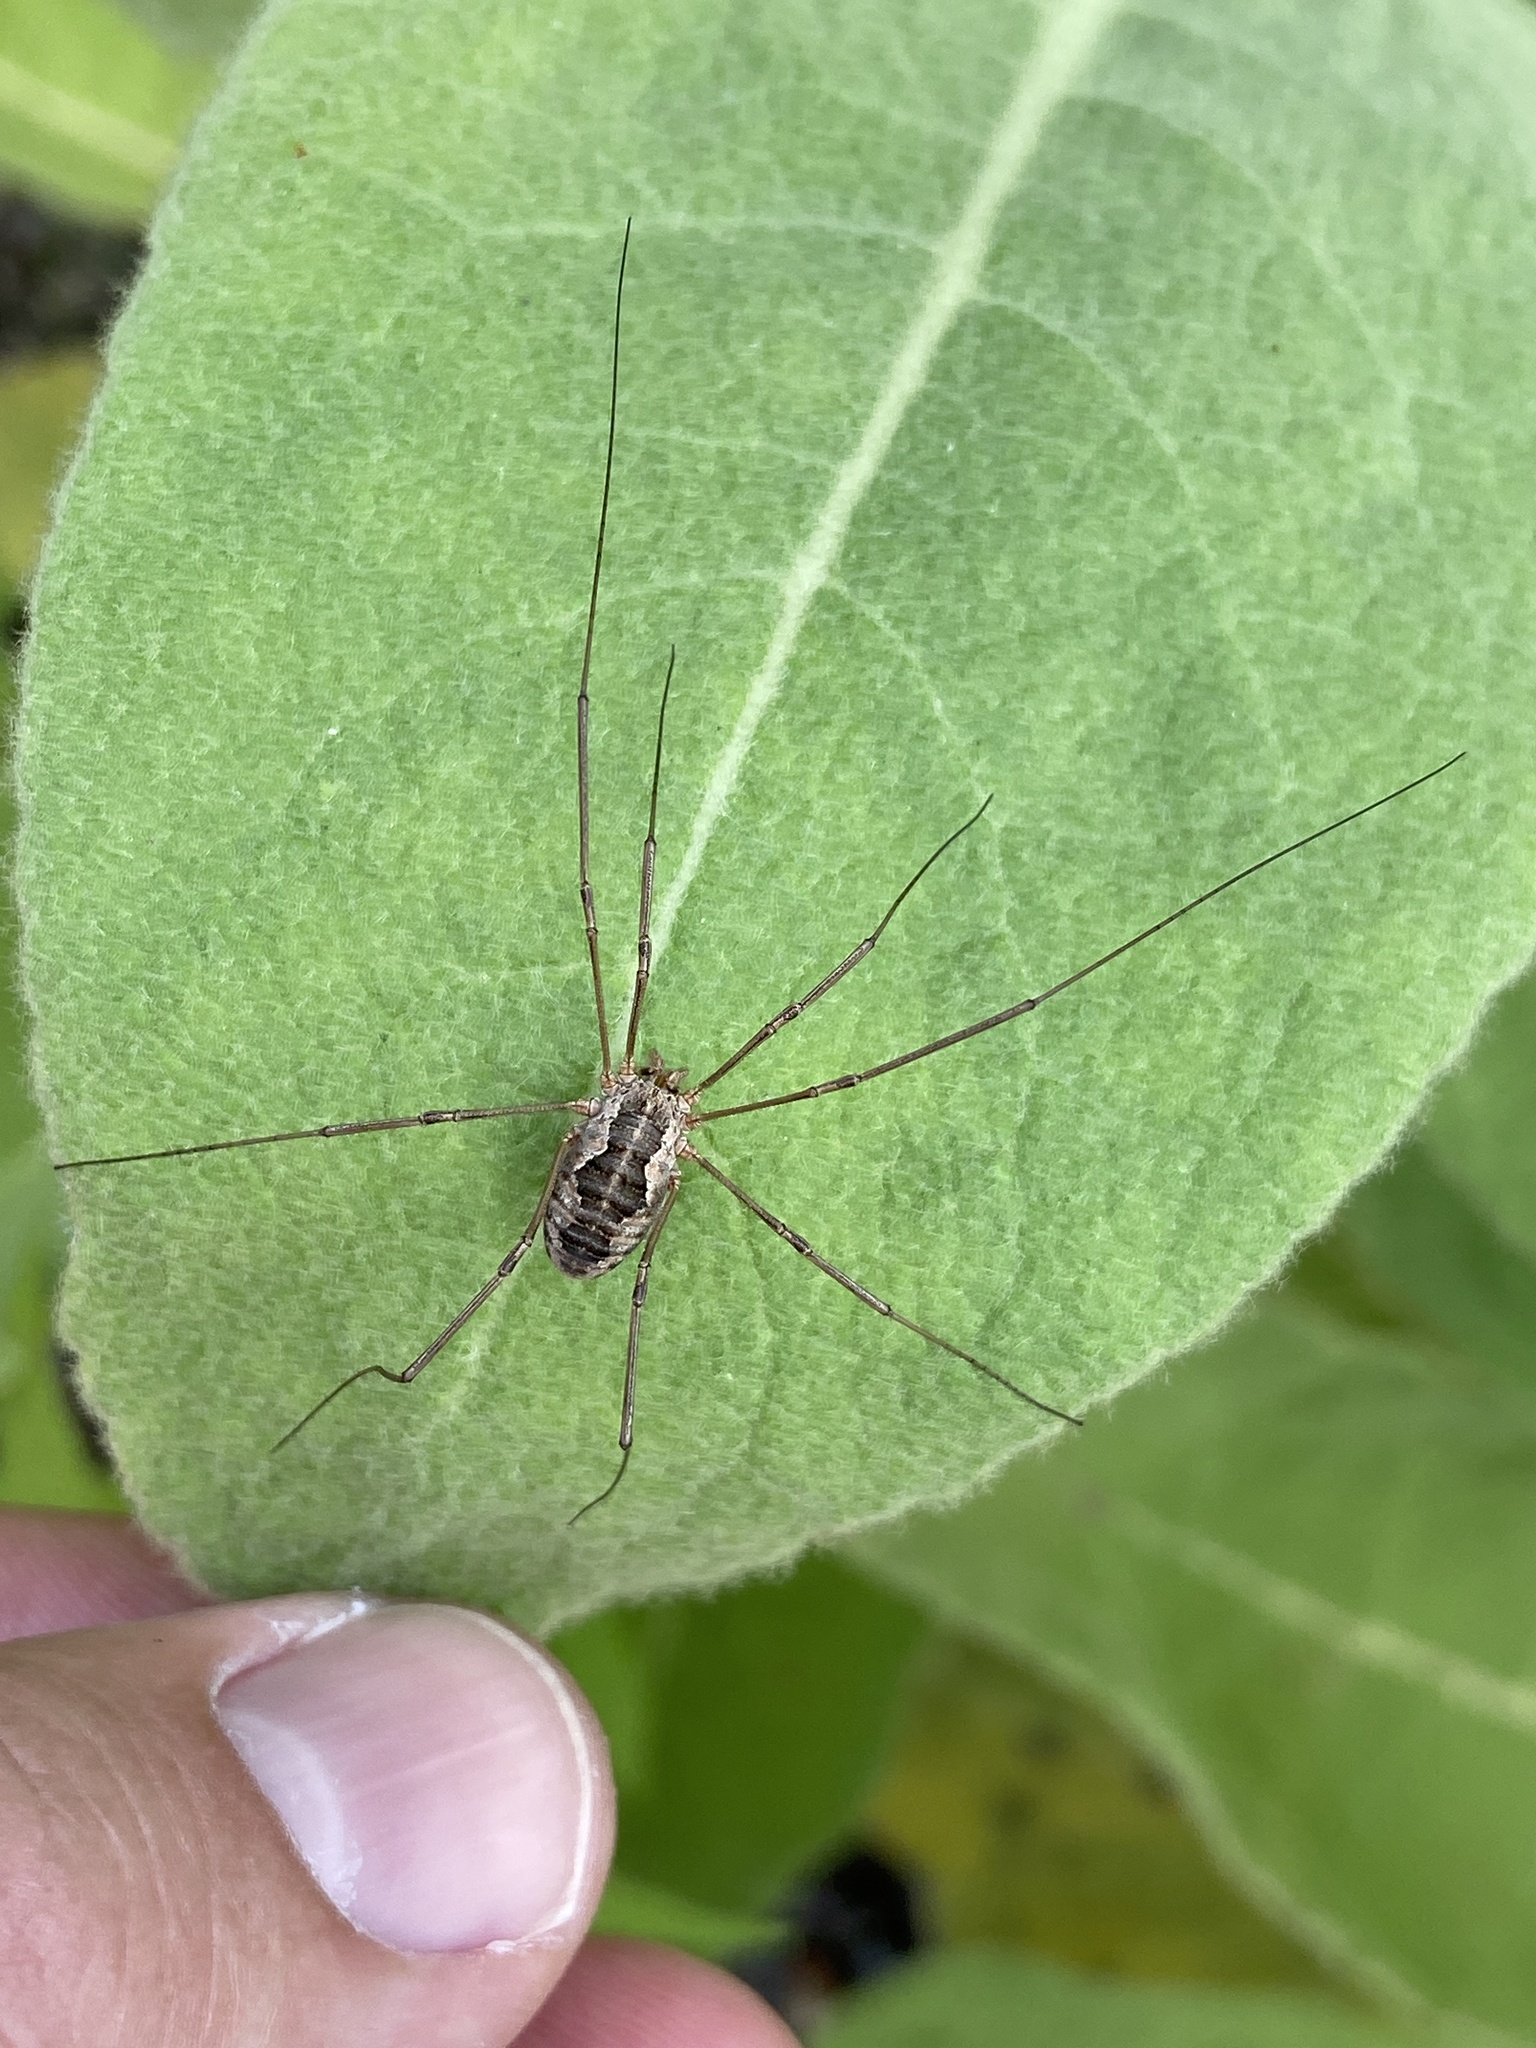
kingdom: Animalia
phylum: Arthropoda
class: Arachnida
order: Opiliones
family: Phalangiidae
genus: Phalangium
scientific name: Phalangium opilio
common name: Daddy longleg
